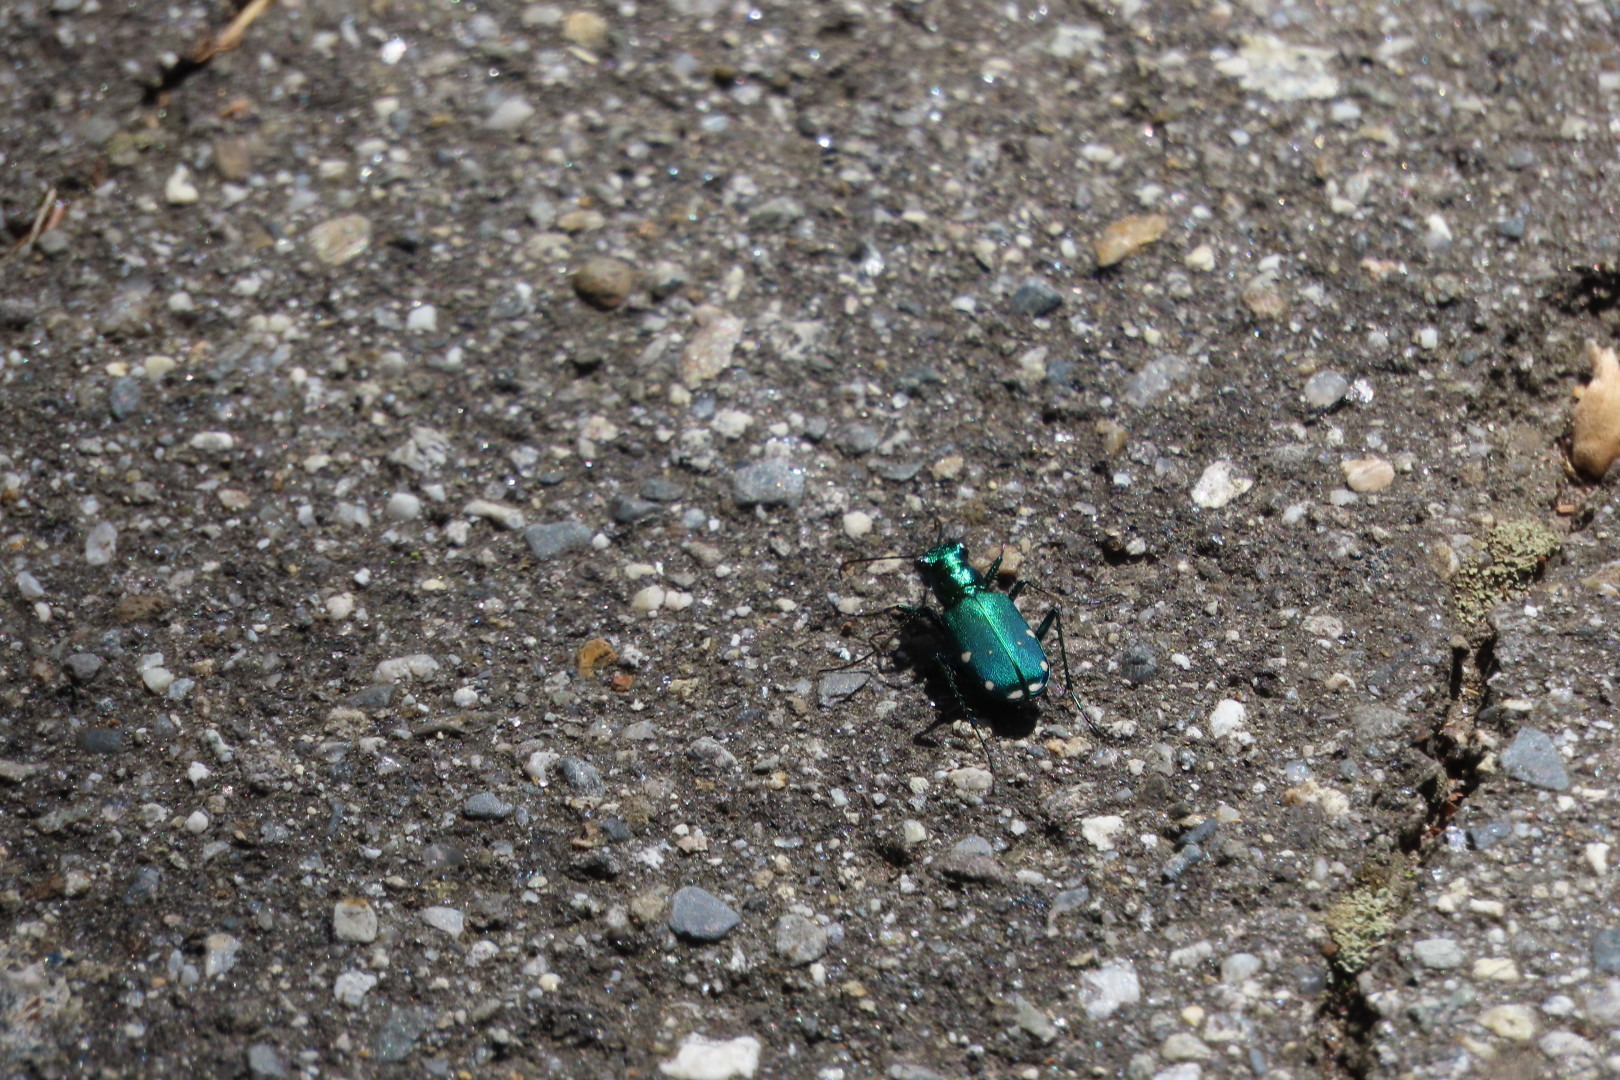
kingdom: Animalia
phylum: Arthropoda
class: Insecta
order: Coleoptera
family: Carabidae
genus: Cicindela
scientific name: Cicindela sexguttata
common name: Six-spotted tiger beetle
